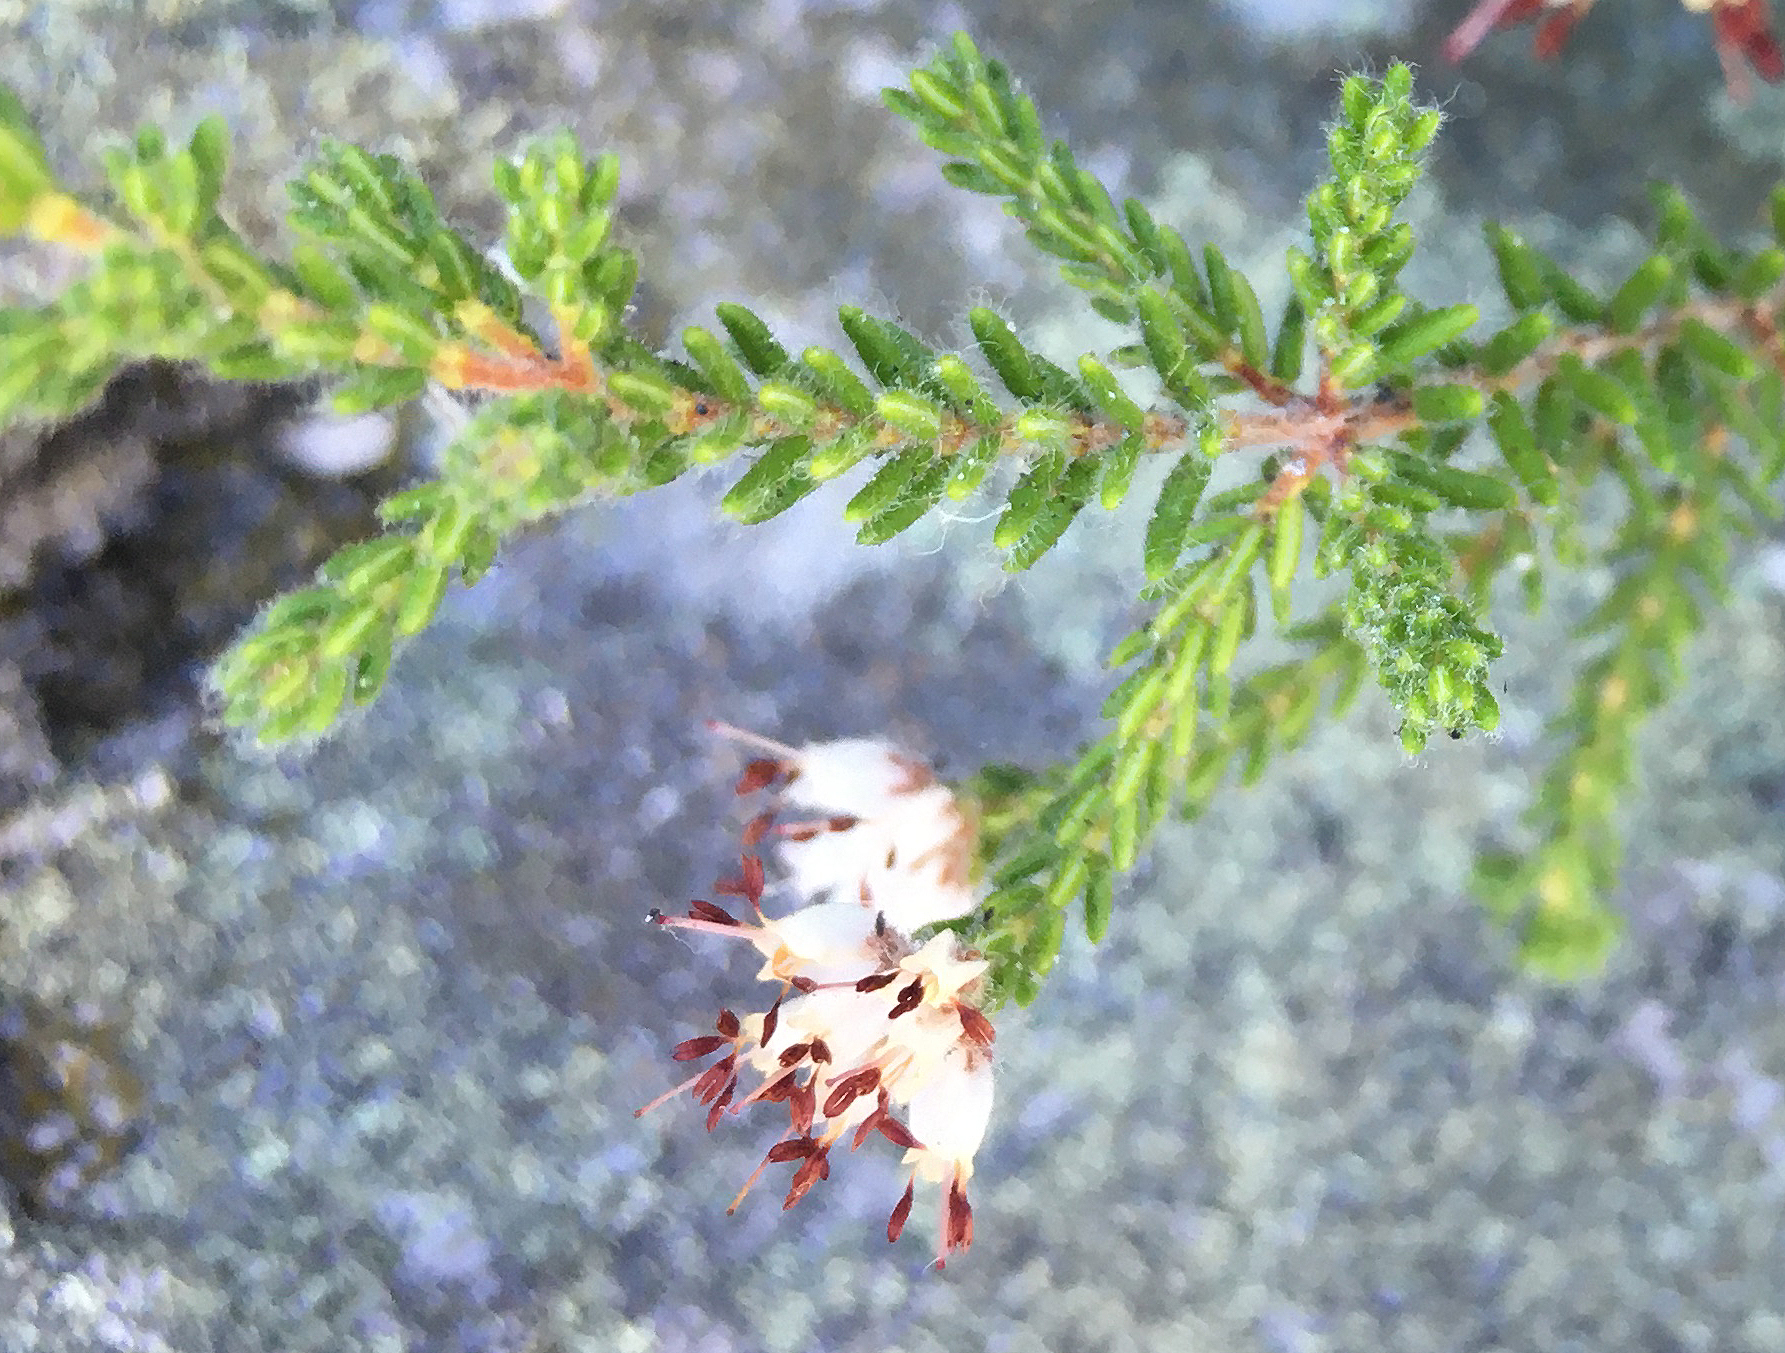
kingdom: Plantae
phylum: Tracheophyta
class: Magnoliopsida
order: Ericales
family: Ericaceae
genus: Erica
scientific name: Erica ericoides
